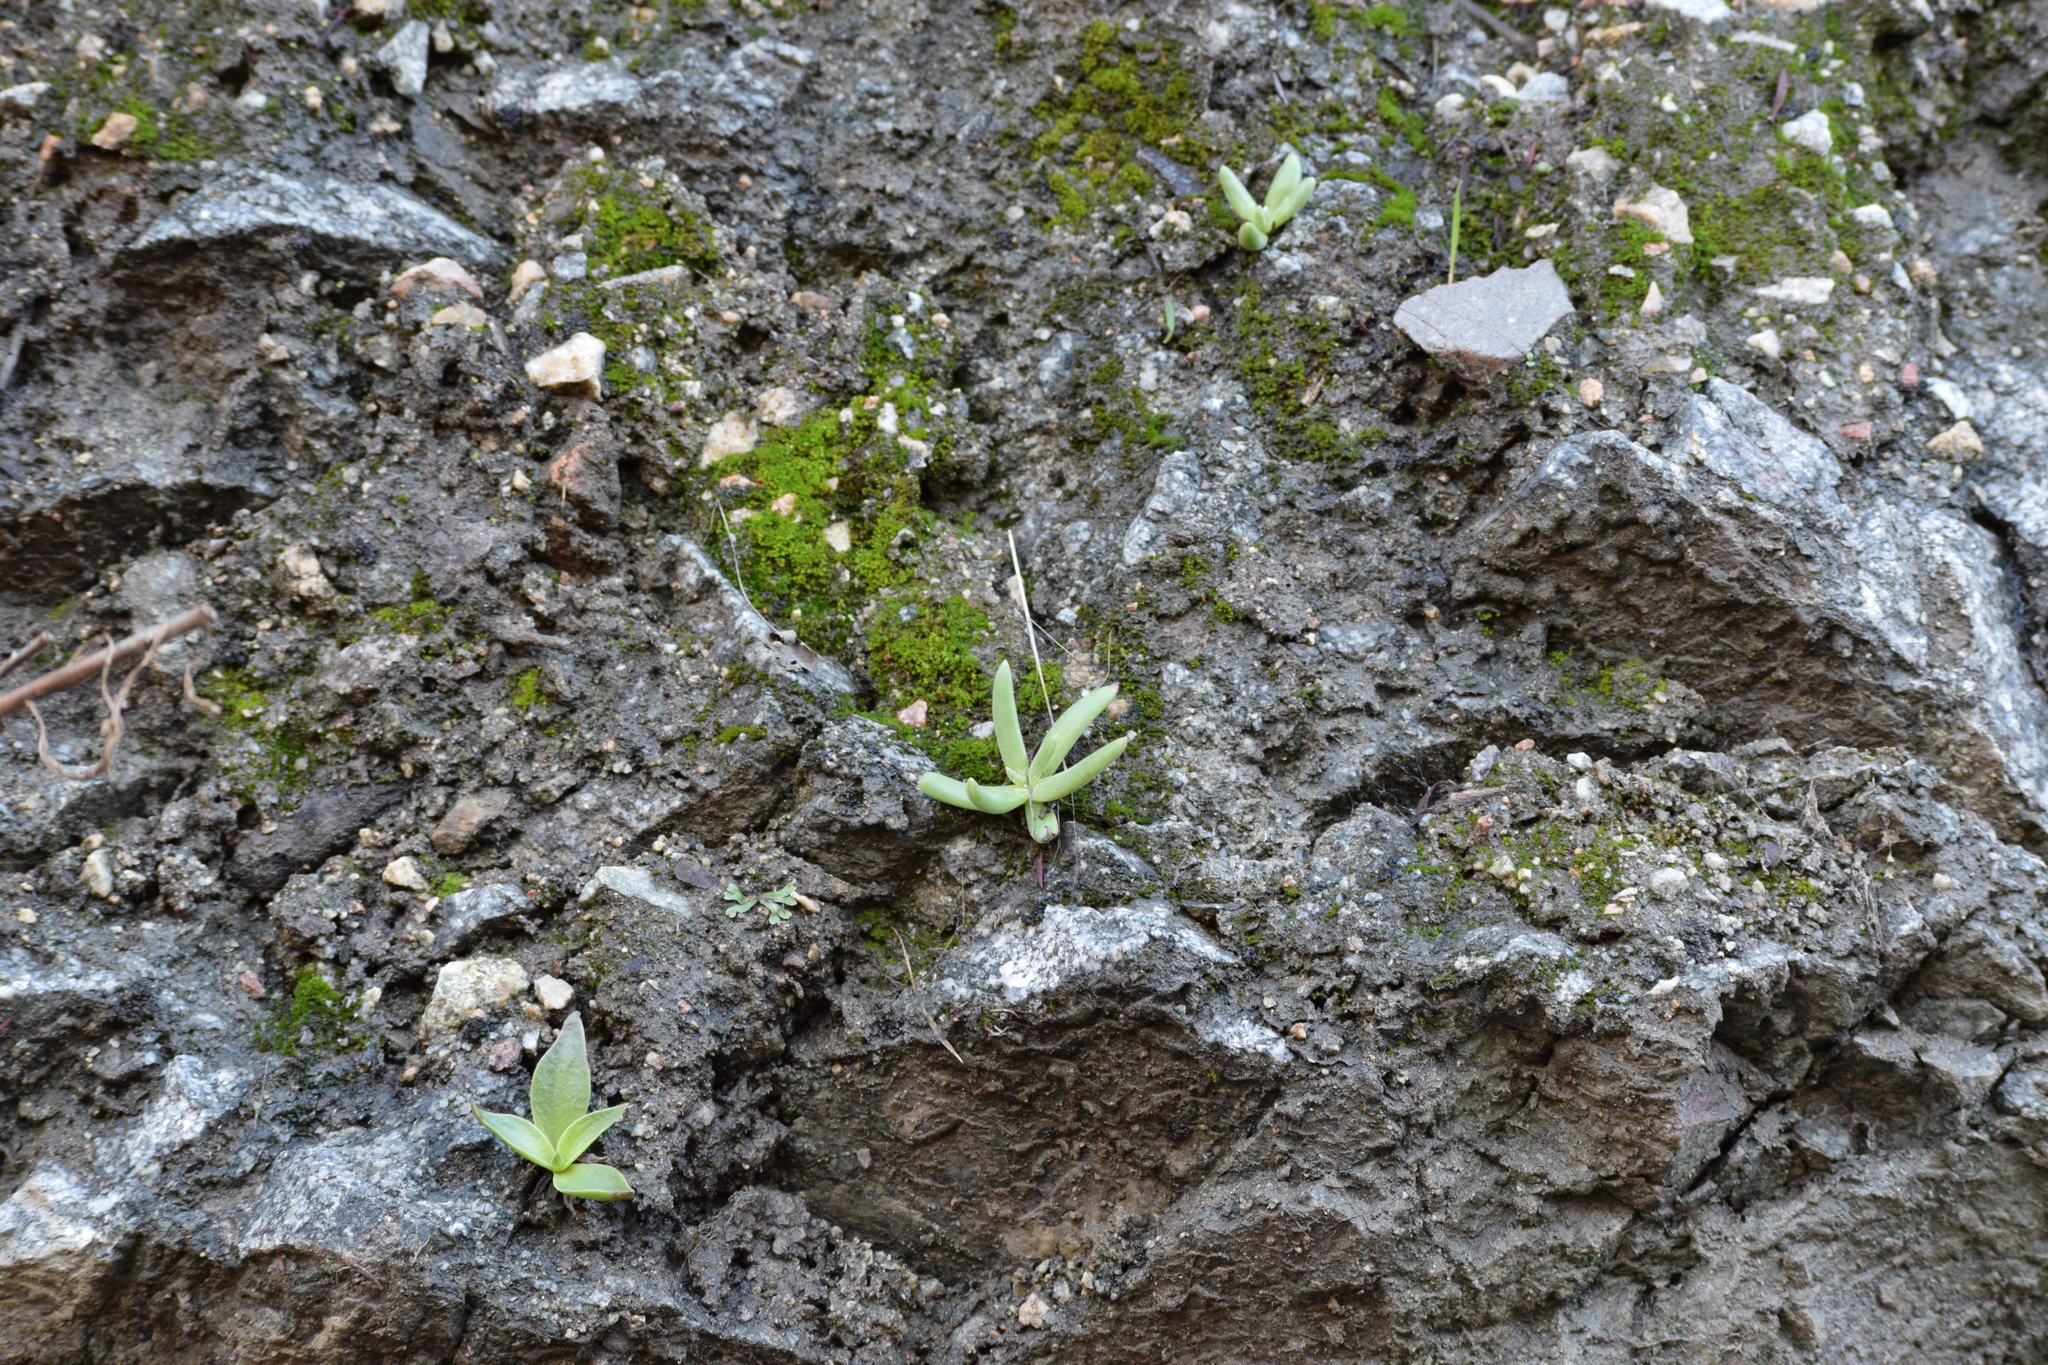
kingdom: Plantae
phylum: Tracheophyta
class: Magnoliopsida
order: Saxifragales
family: Crassulaceae
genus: Dudleya
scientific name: Dudleya densiflora
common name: San gabriel mountains dudleya
